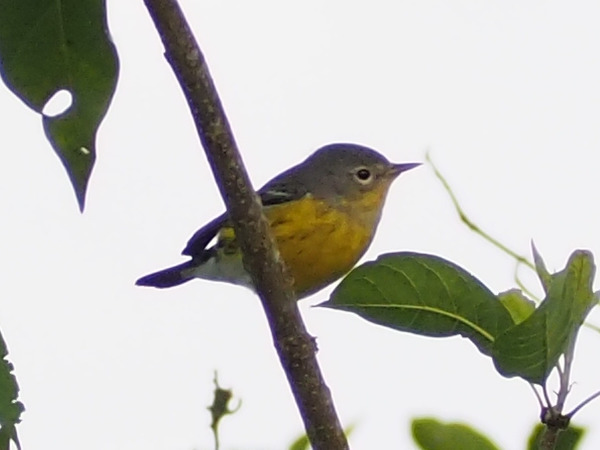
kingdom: Animalia
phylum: Chordata
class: Aves
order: Passeriformes
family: Parulidae
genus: Setophaga
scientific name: Setophaga magnolia
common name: Magnolia warbler
